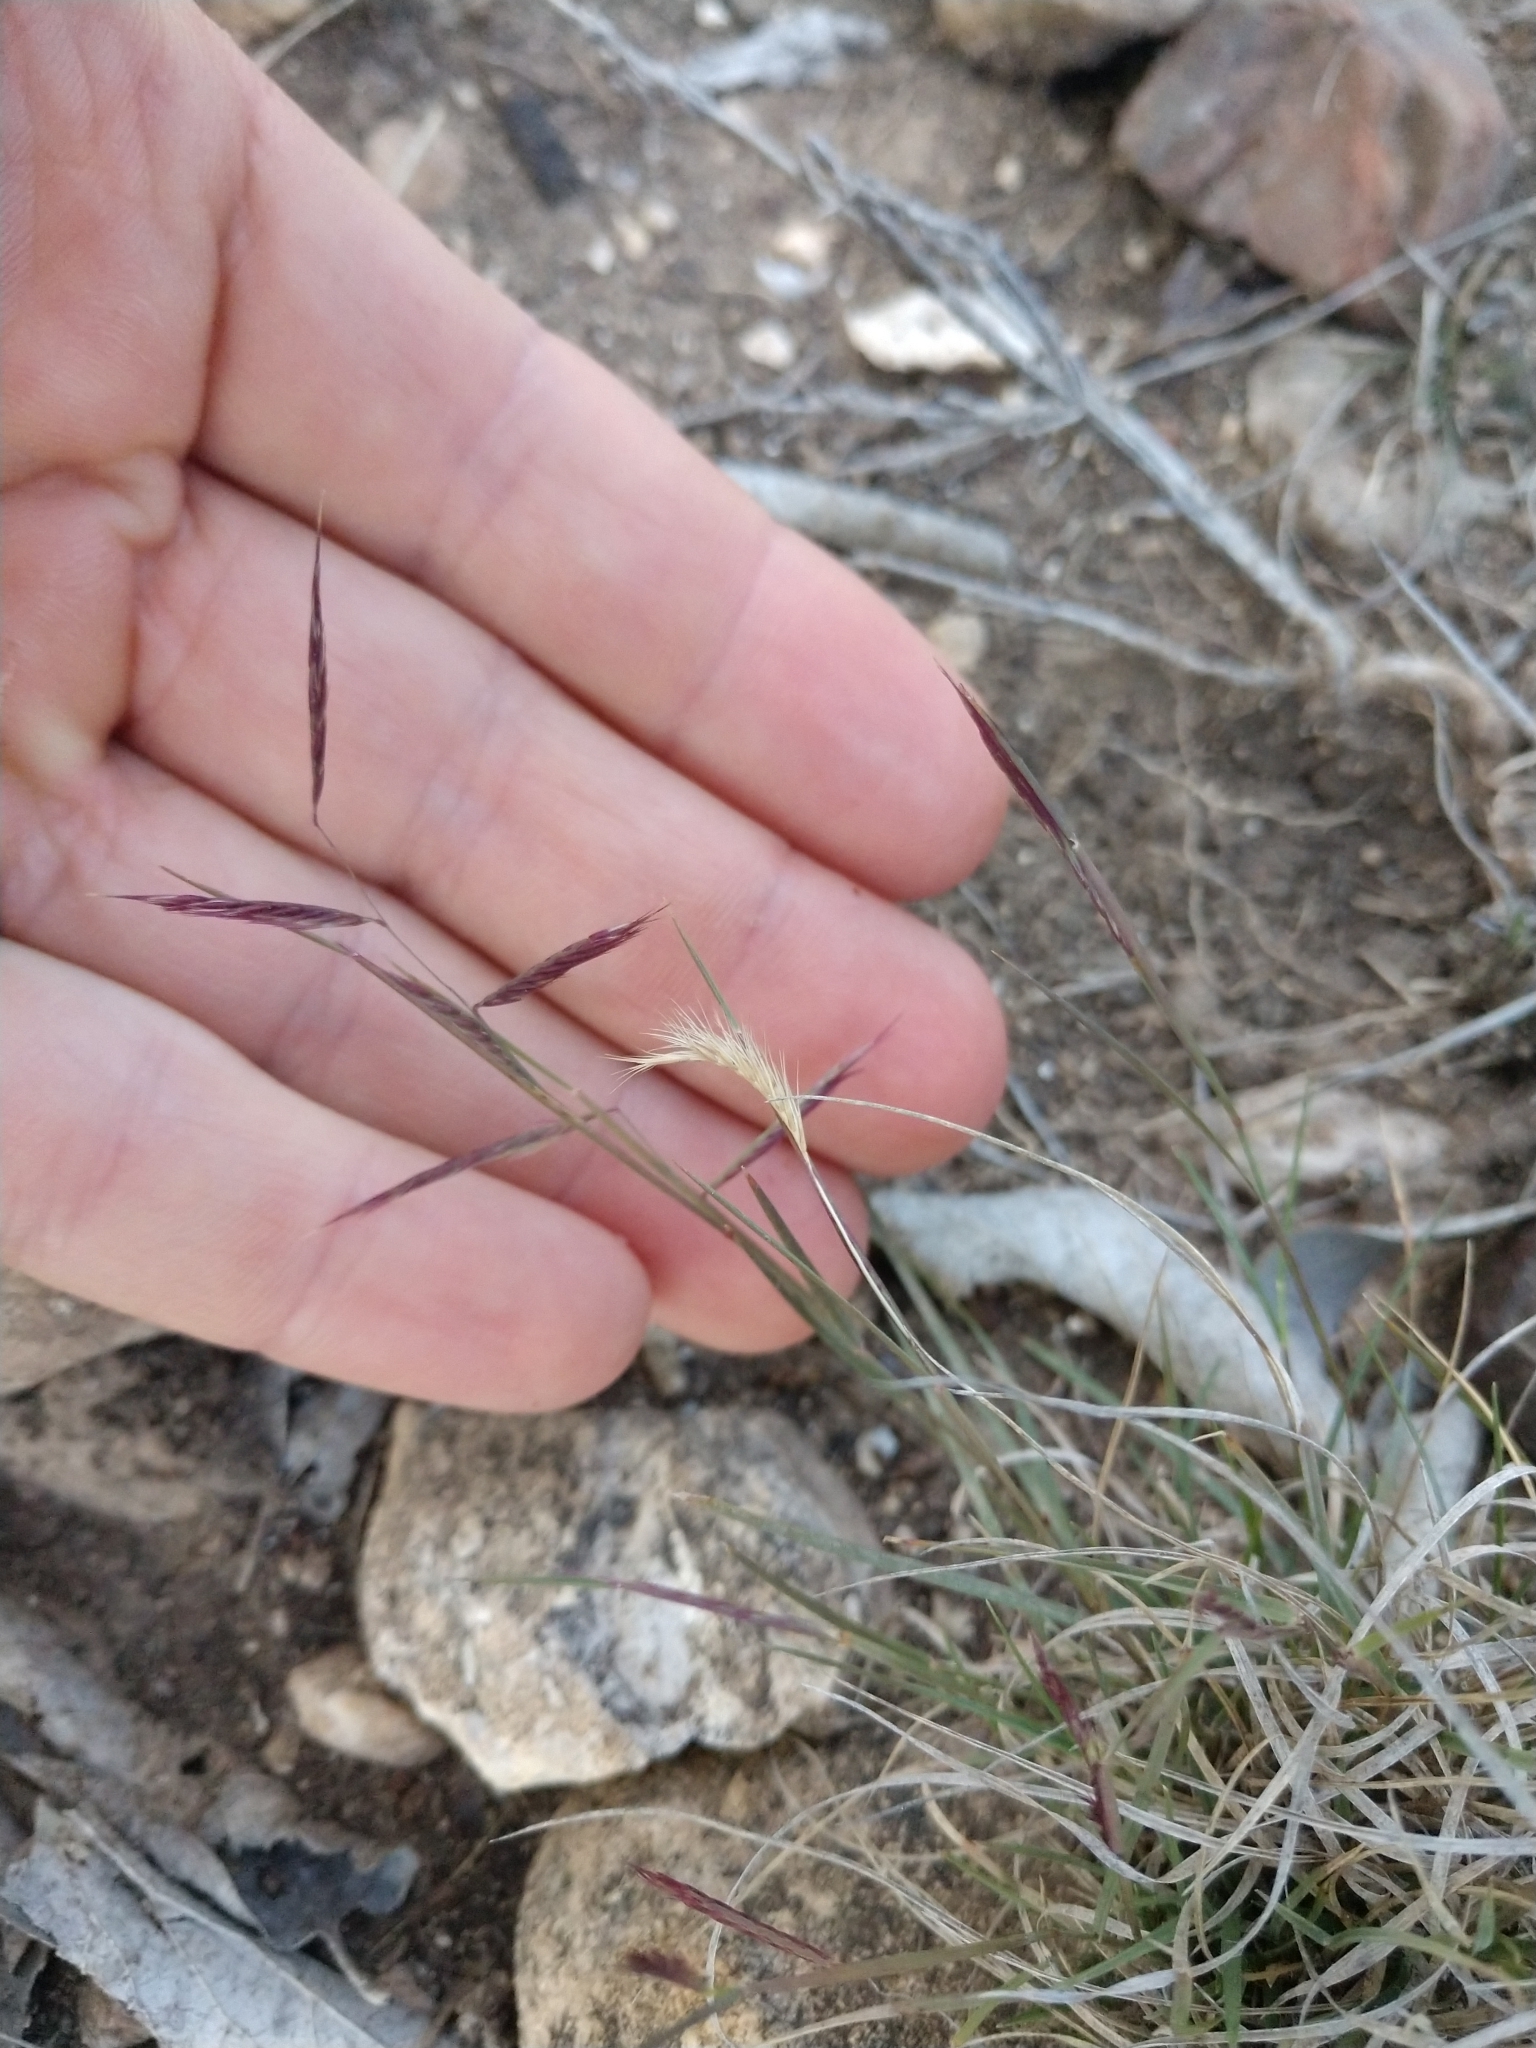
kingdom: Plantae
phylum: Tracheophyta
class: Liliopsida
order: Poales
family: Poaceae
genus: Bouteloua
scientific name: Bouteloua trifida
